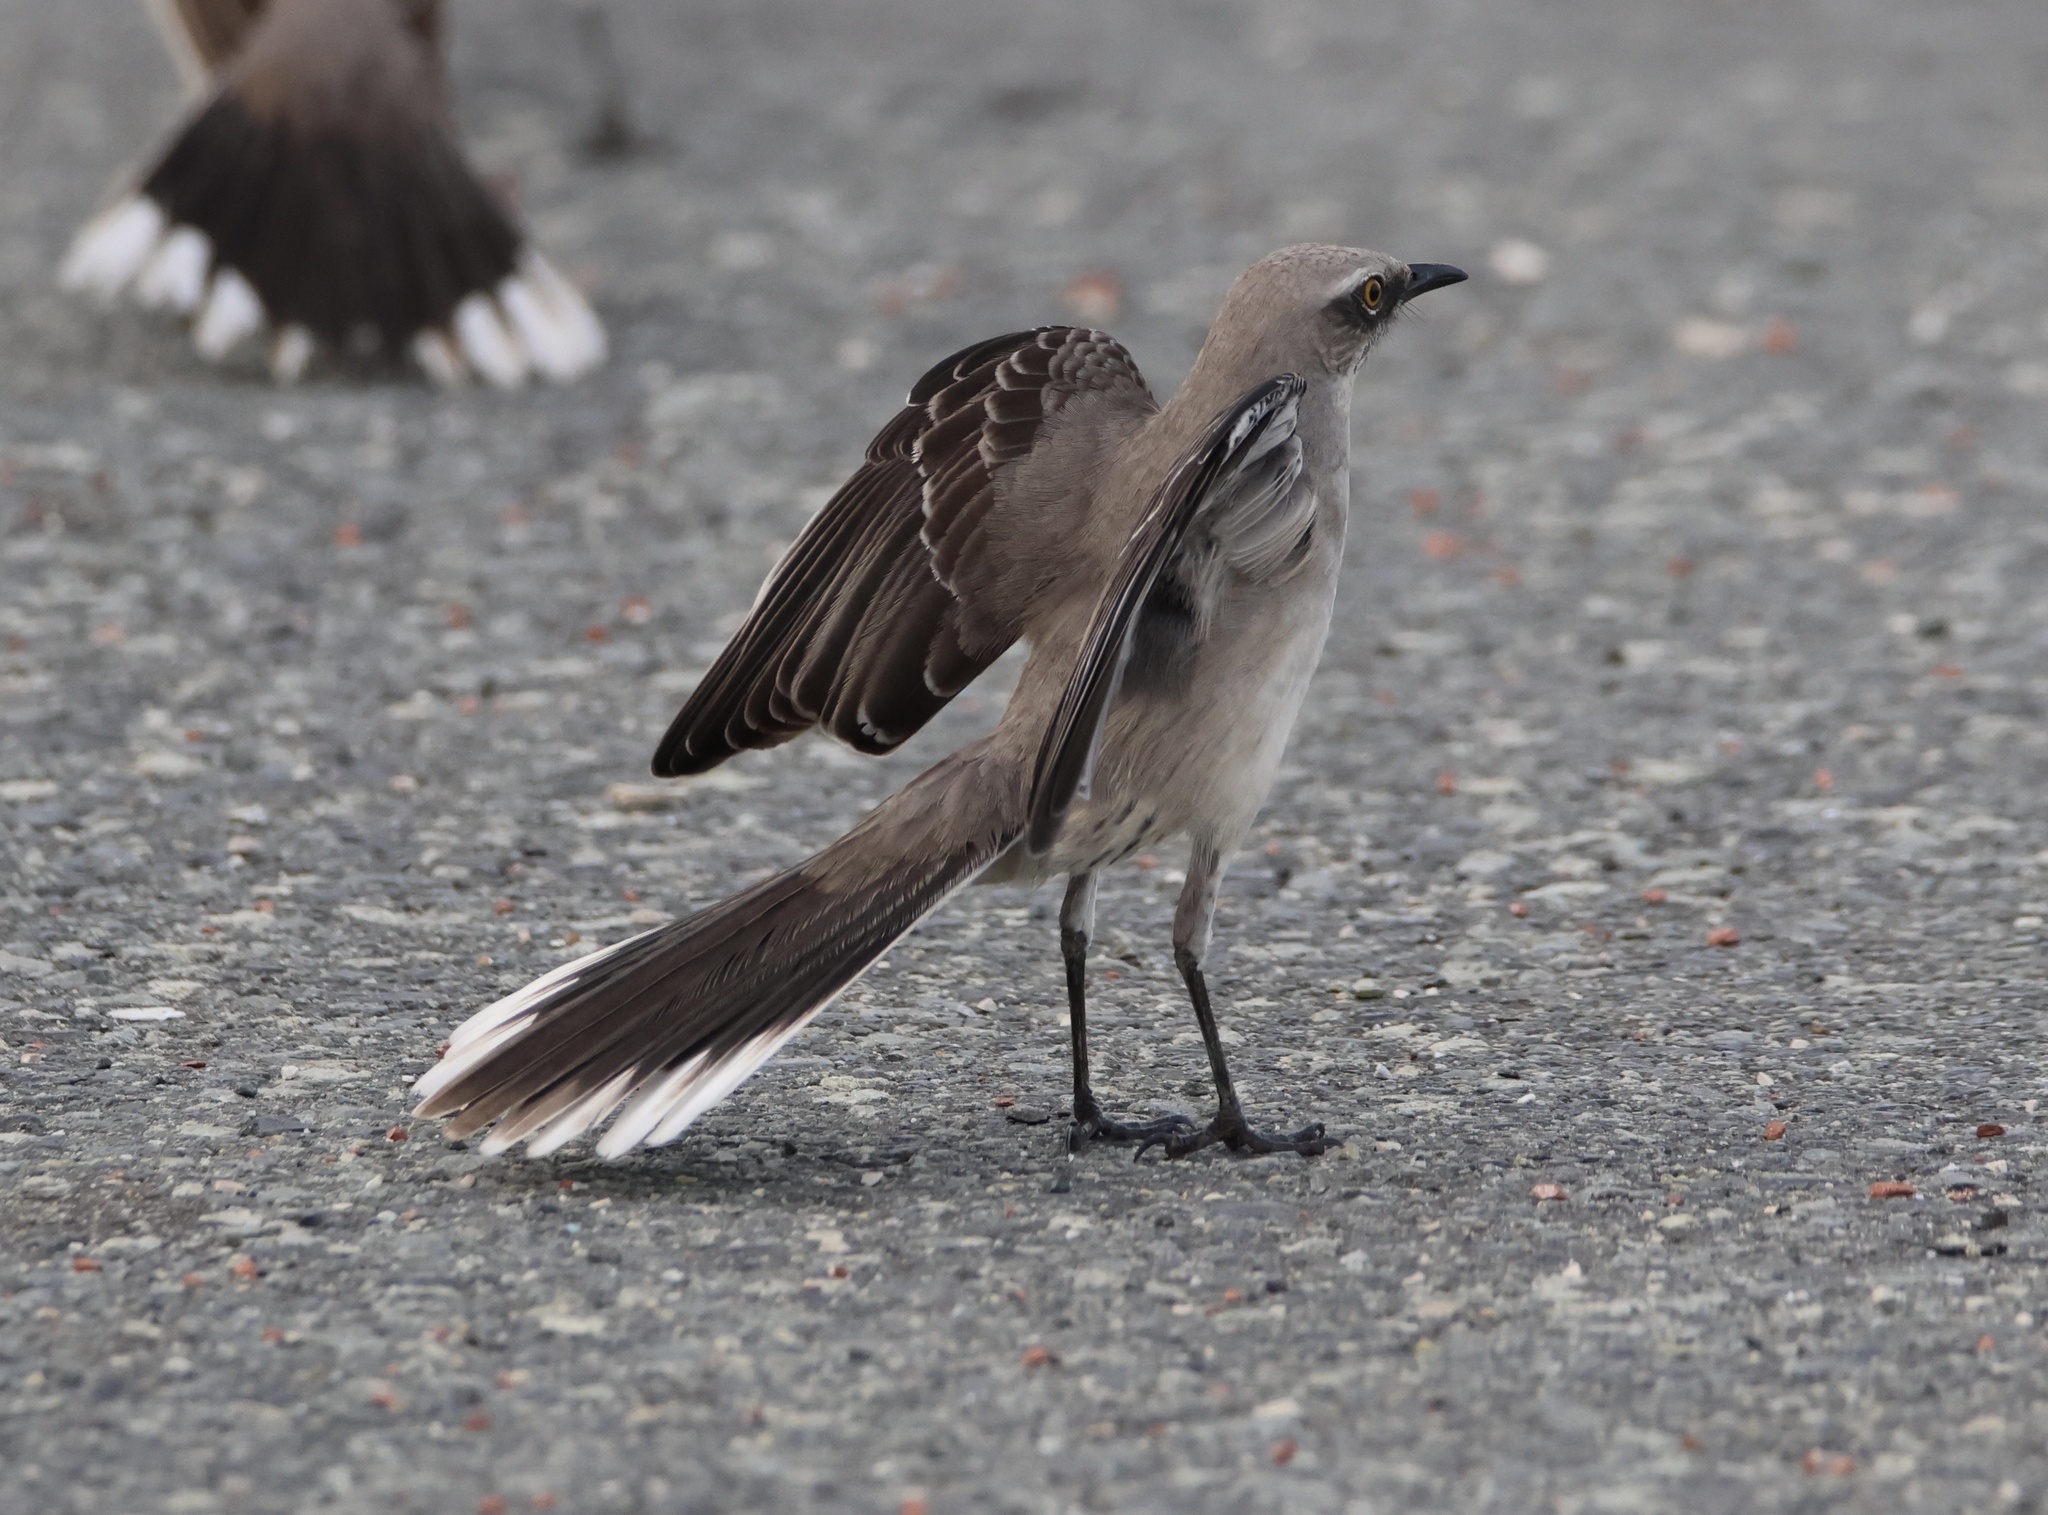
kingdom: Animalia
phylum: Chordata
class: Aves
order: Passeriformes
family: Mimidae
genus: Mimus
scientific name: Mimus gilvus
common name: Tropical mockingbird
